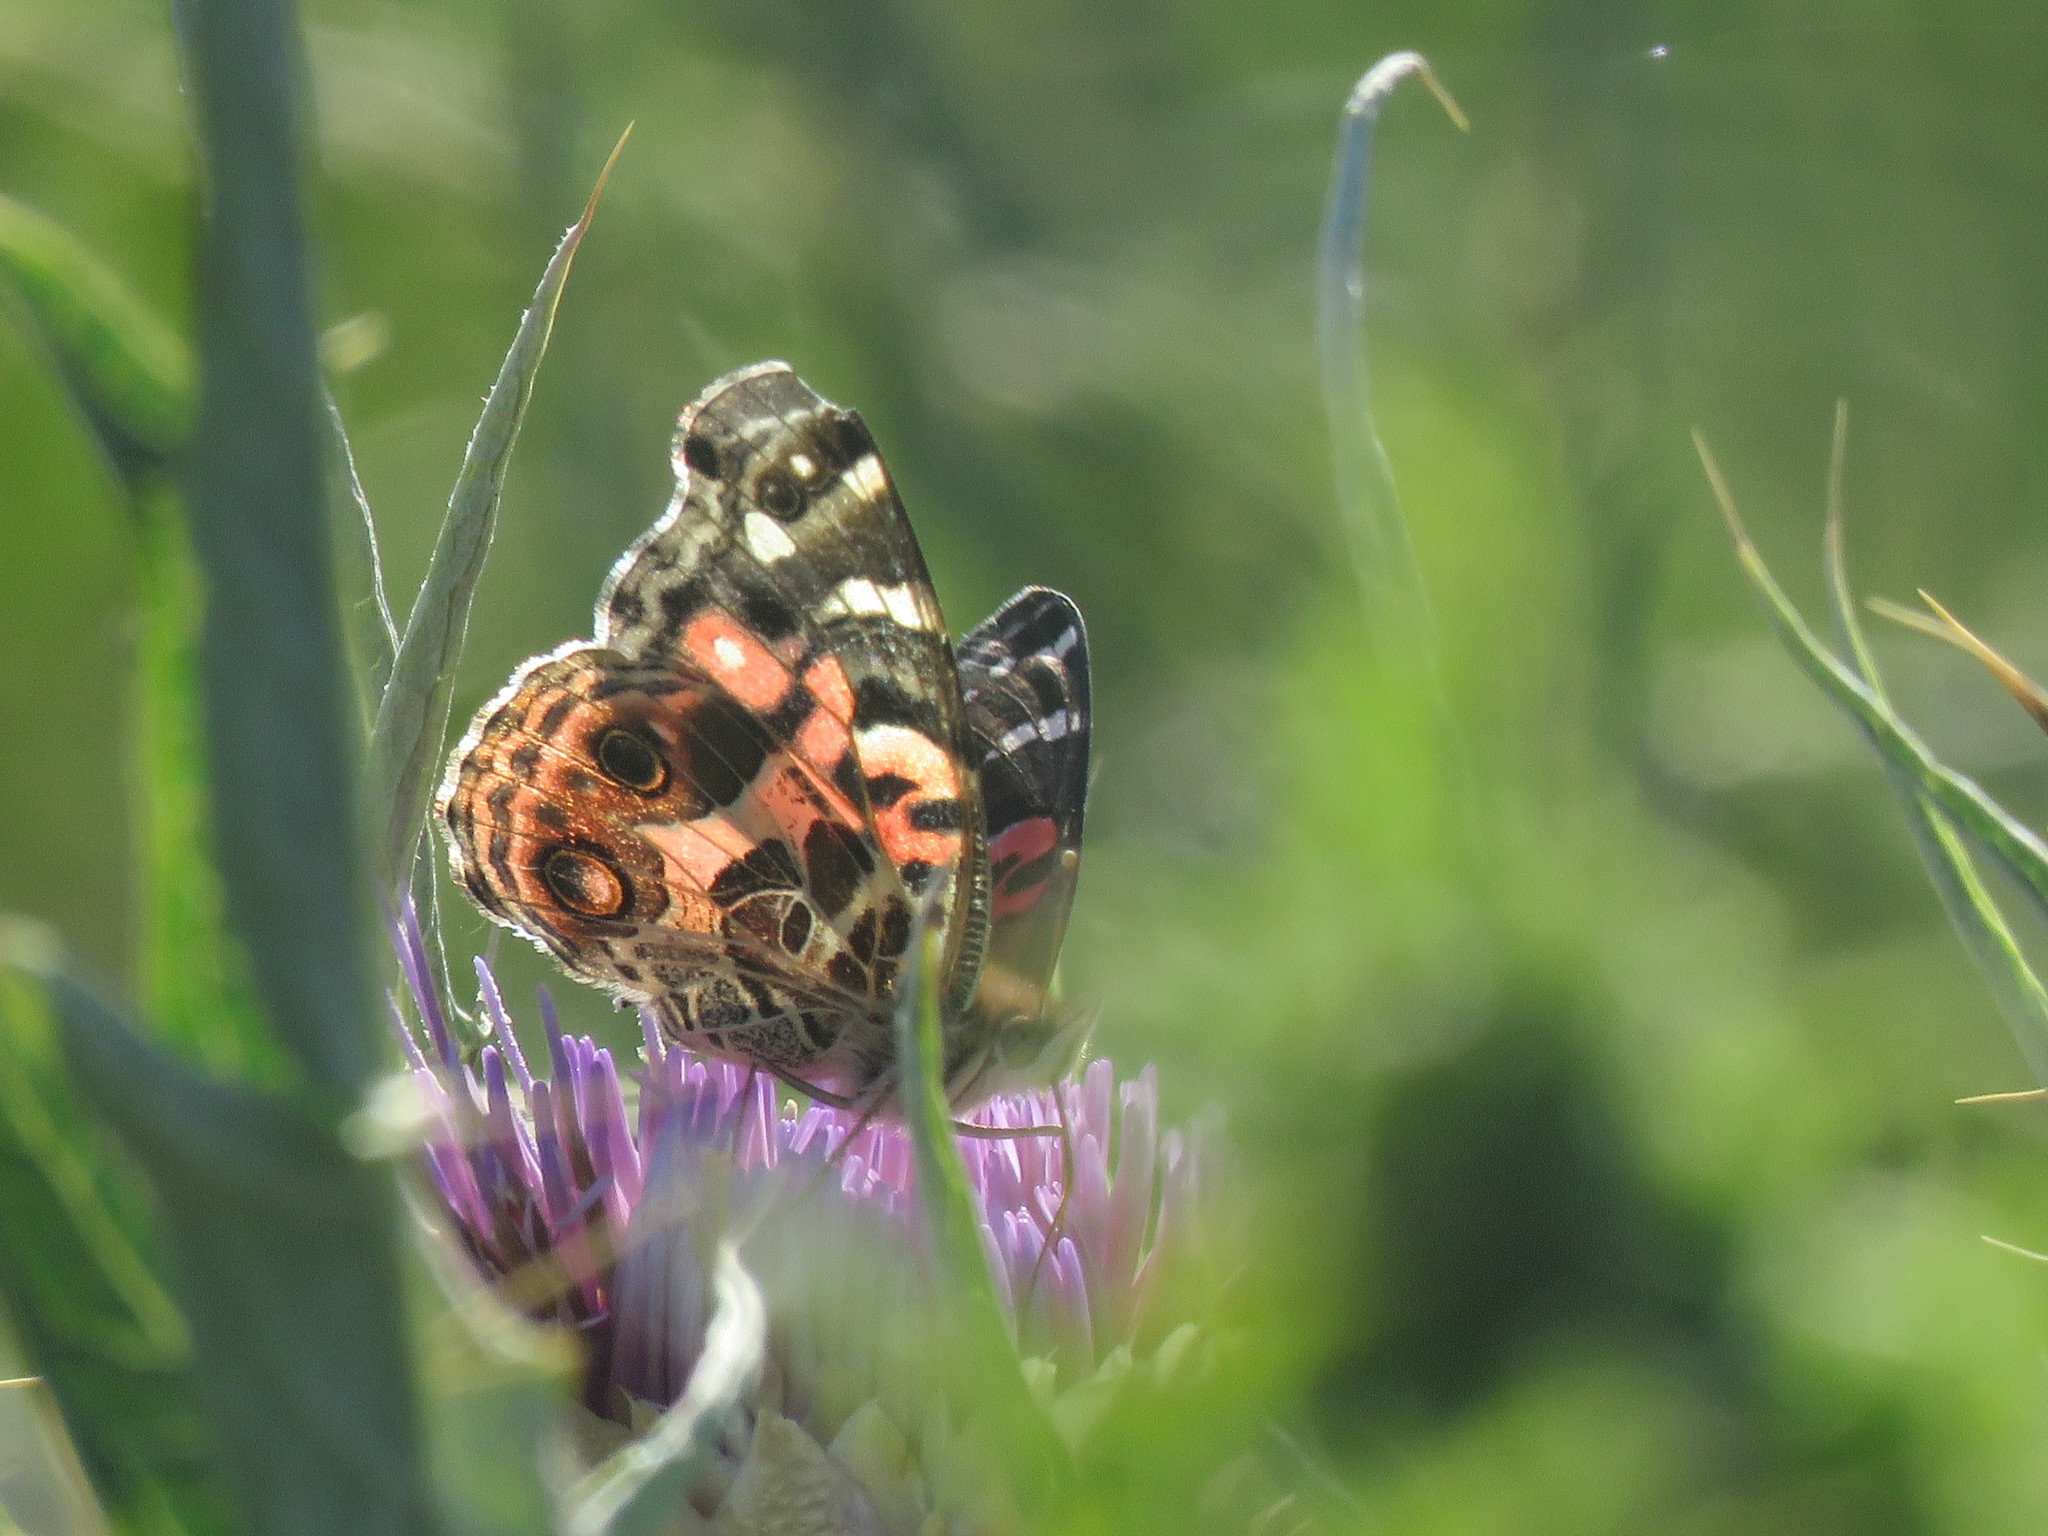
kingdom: Animalia
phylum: Arthropoda
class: Insecta
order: Lepidoptera
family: Nymphalidae
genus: Vanessa
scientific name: Vanessa braziliensis
